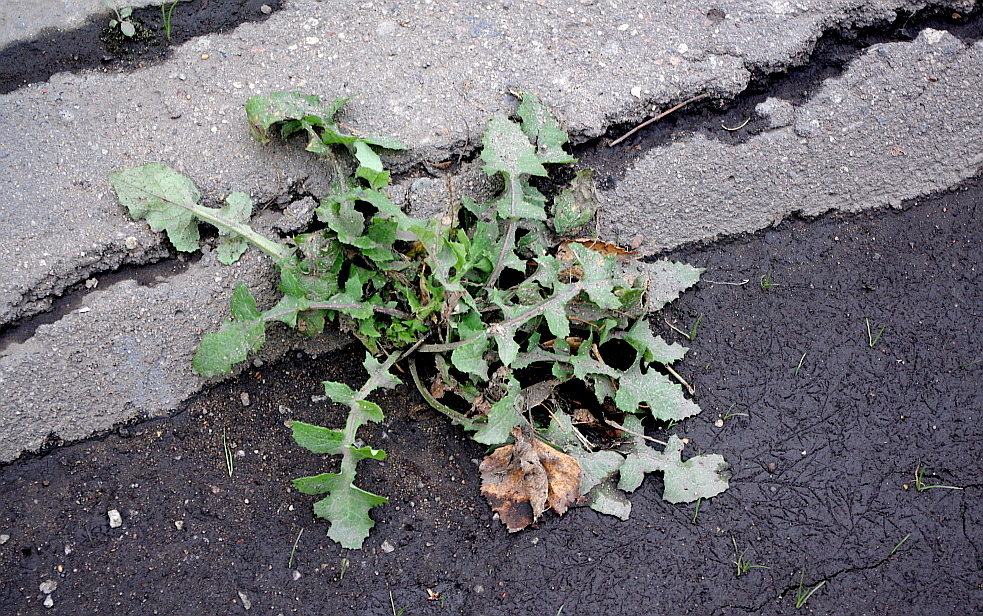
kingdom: Plantae
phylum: Tracheophyta
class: Magnoliopsida
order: Asterales
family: Asteraceae
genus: Sonchus
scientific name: Sonchus oleraceus
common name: Common sowthistle
